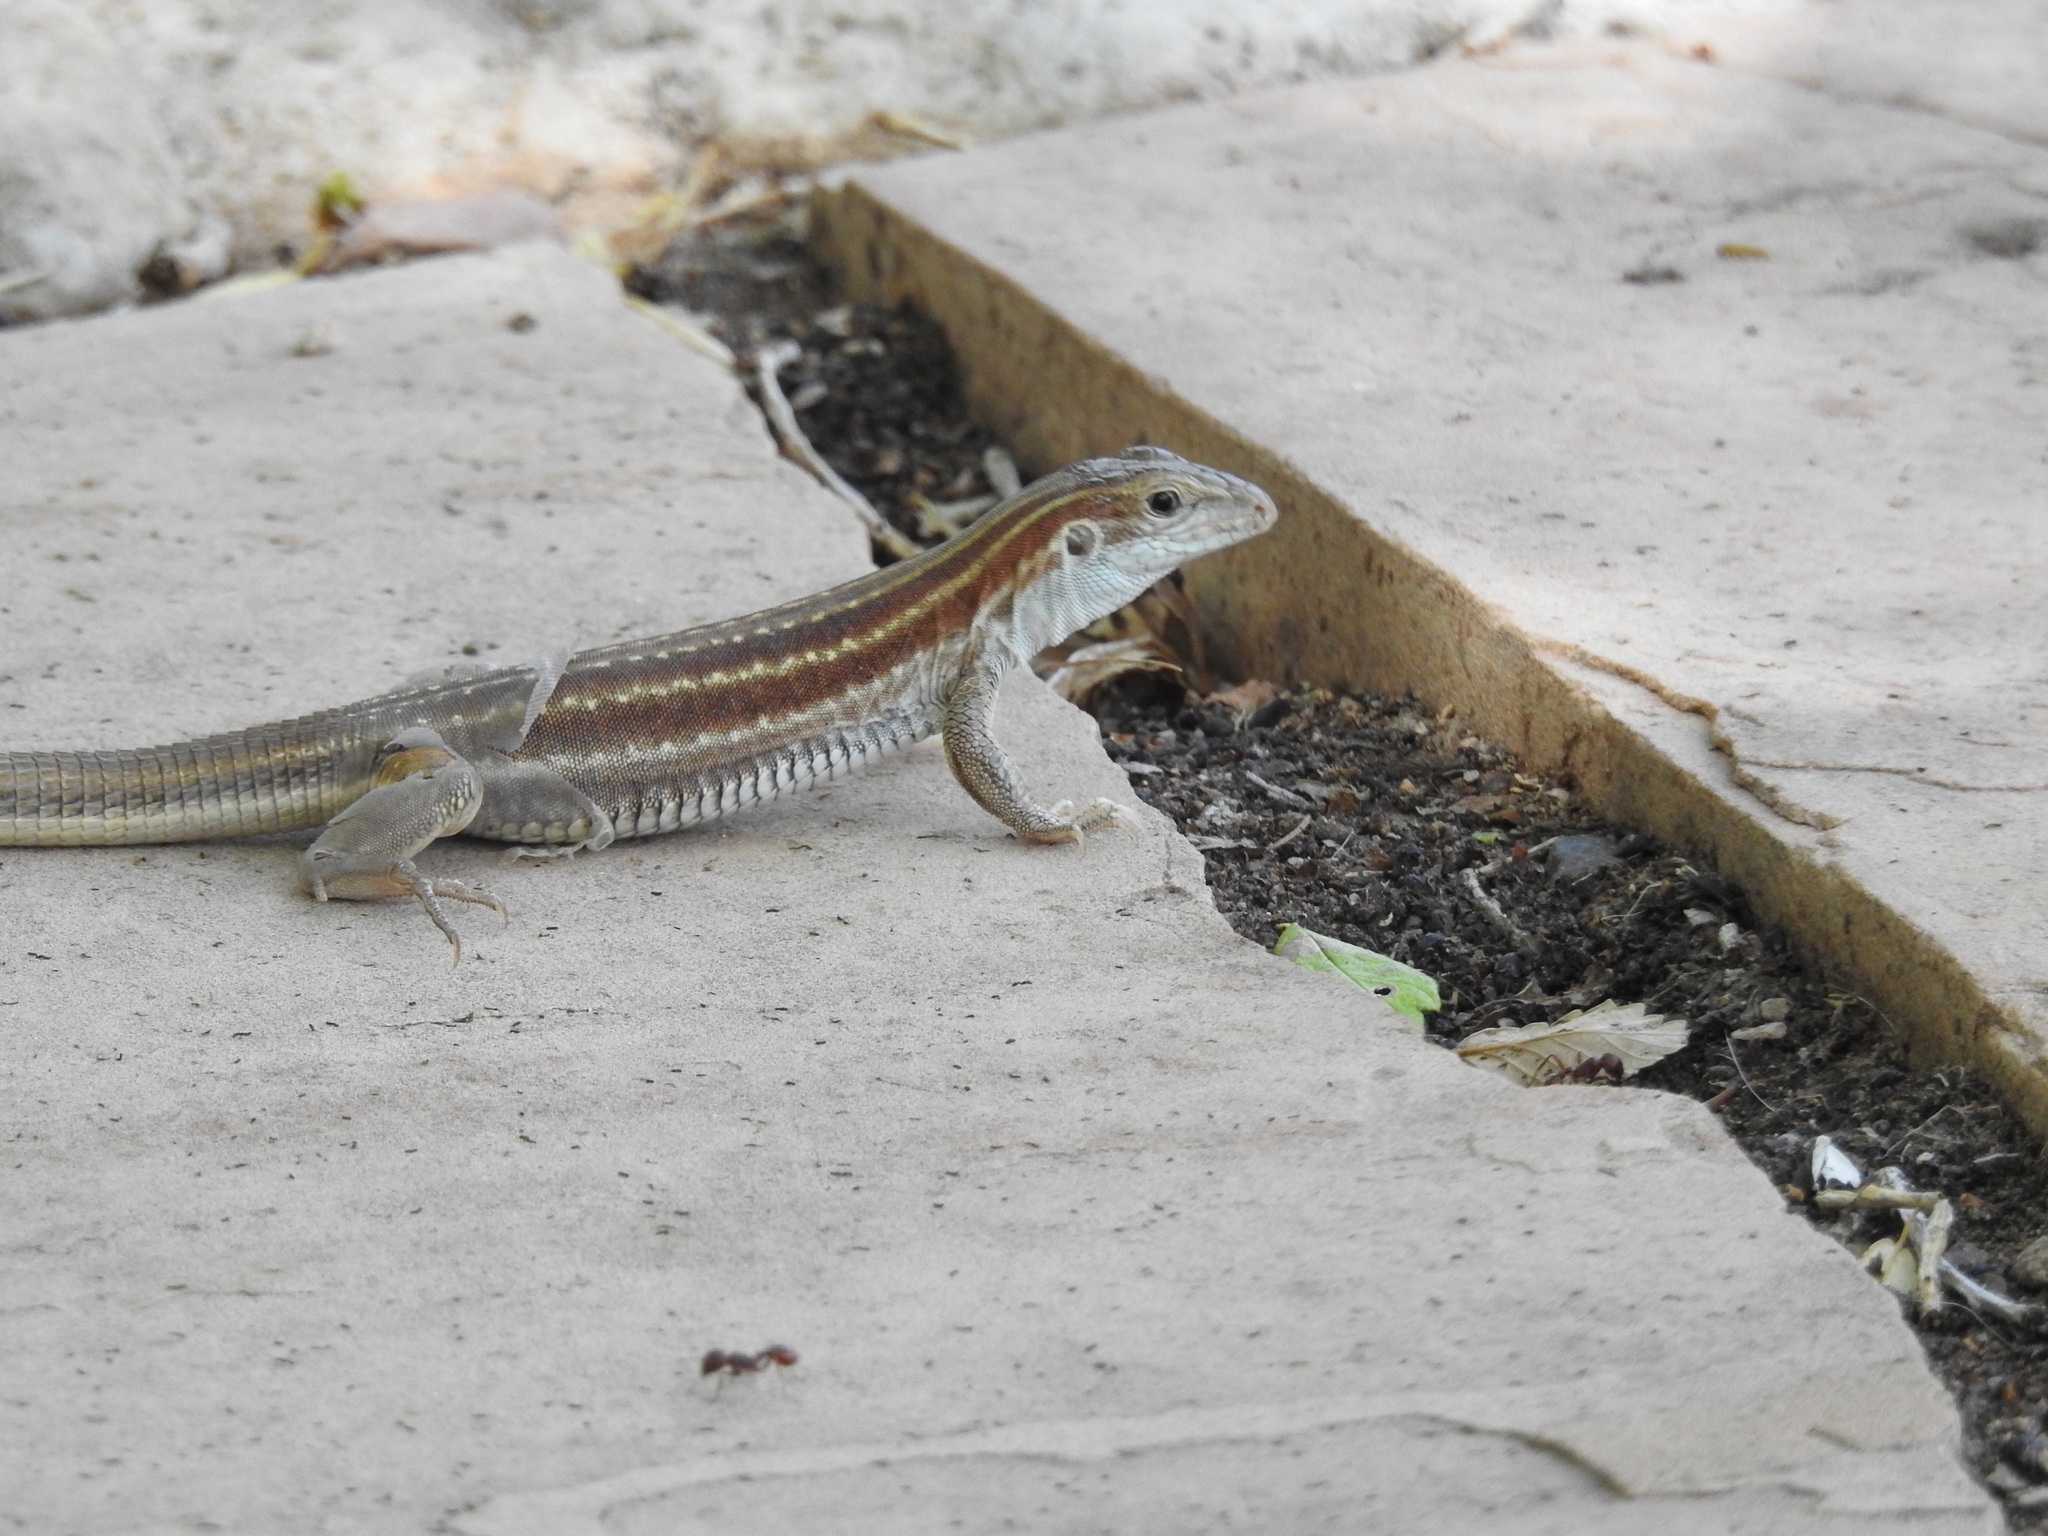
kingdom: Animalia
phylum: Chordata
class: Squamata
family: Teiidae
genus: Aspidoscelis
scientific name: Aspidoscelis sonorae
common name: Sonoran spotted whiptail
